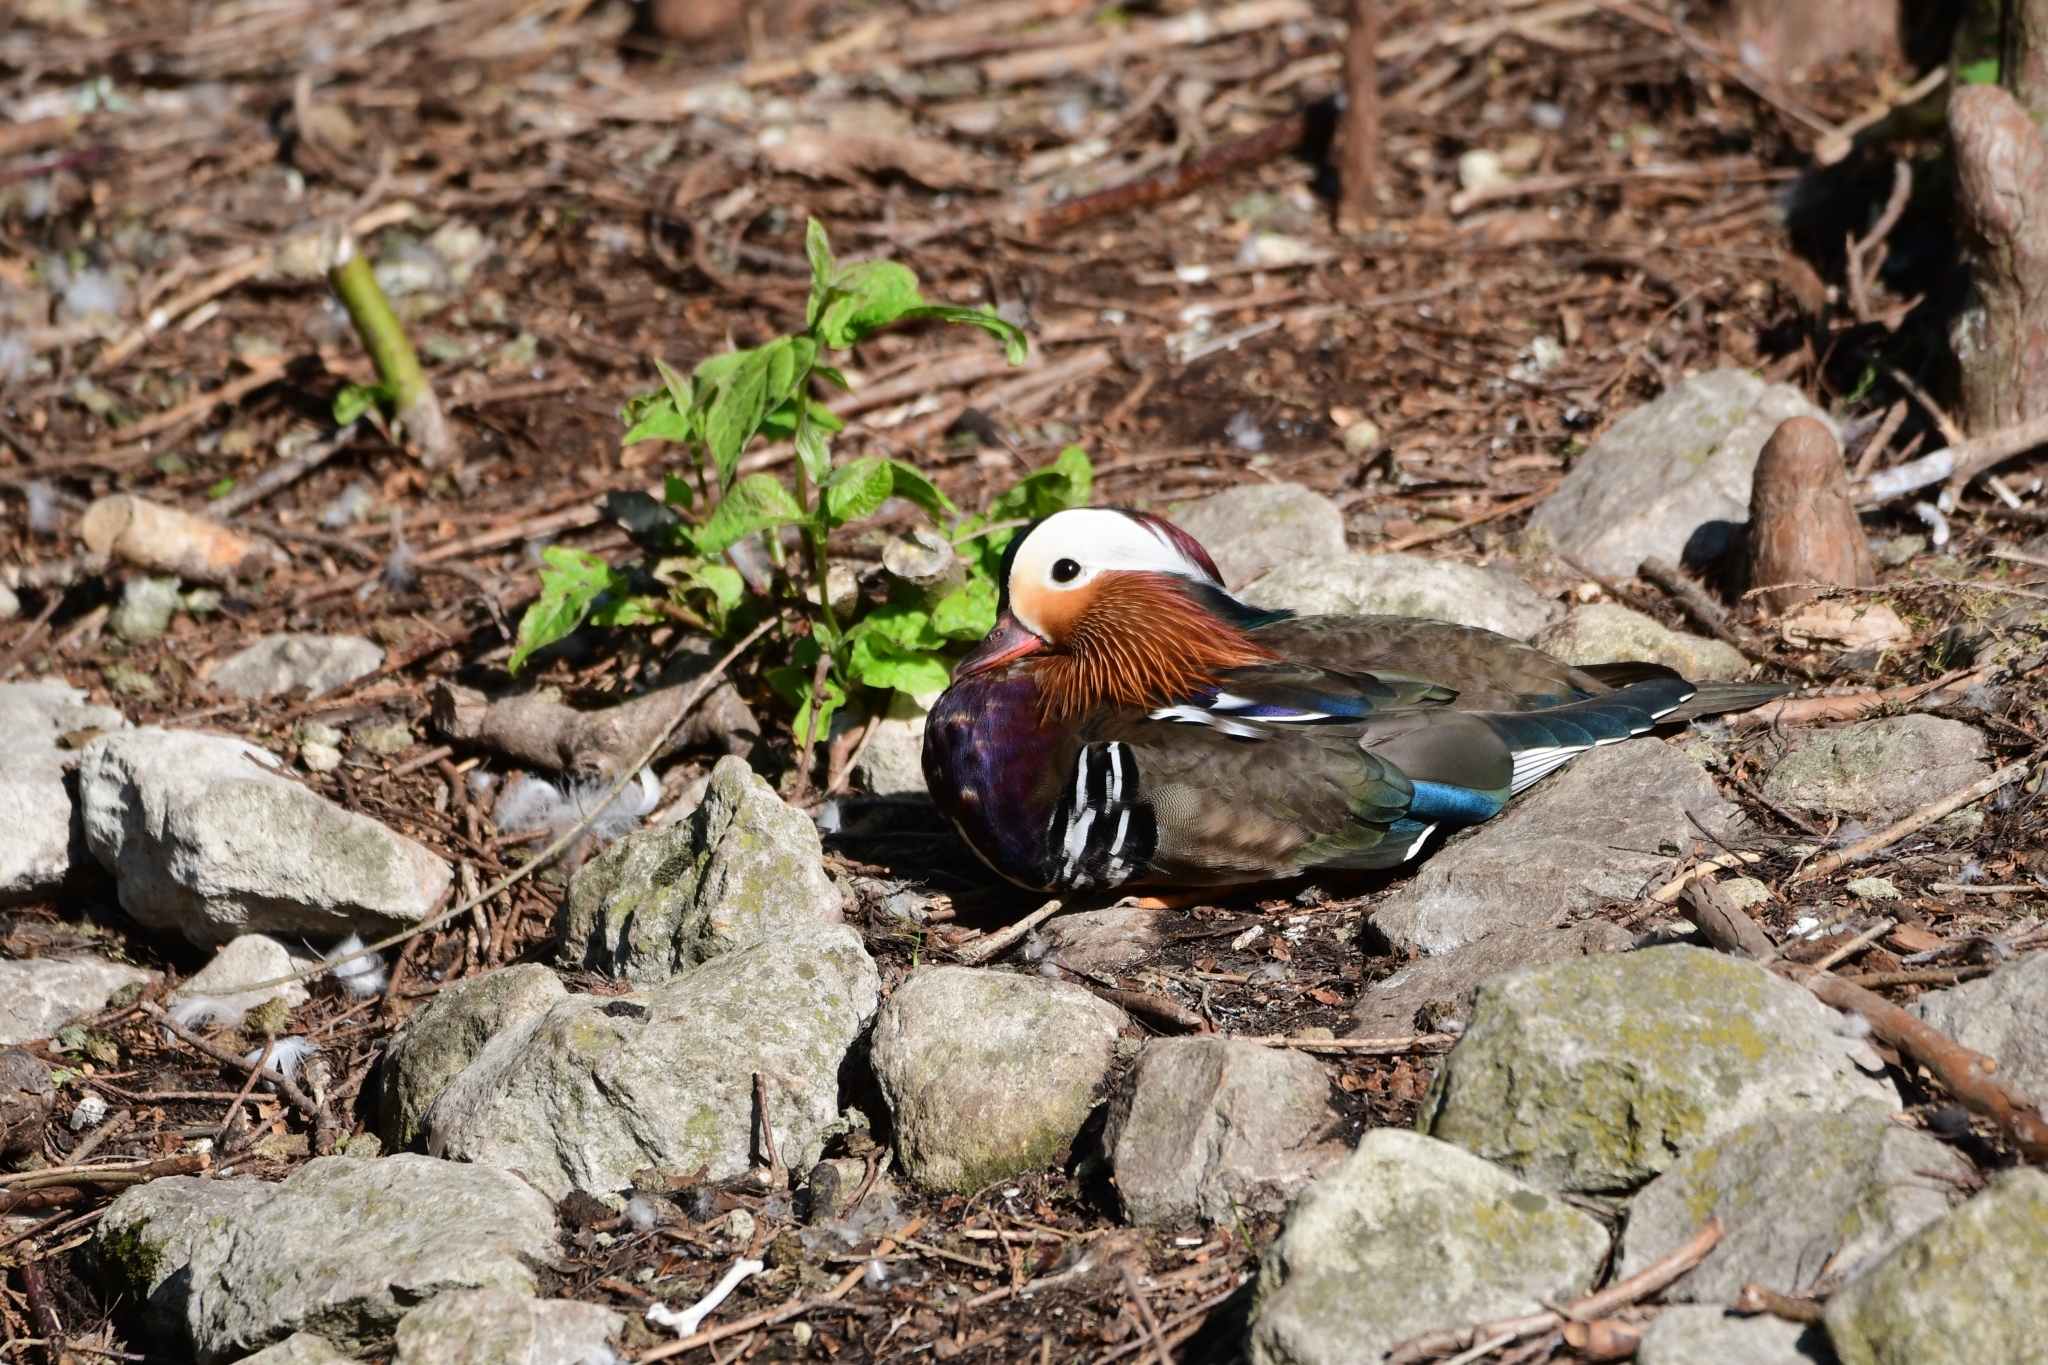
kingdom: Animalia
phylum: Chordata
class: Aves
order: Anseriformes
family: Anatidae
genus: Aix
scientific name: Aix galericulata
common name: Mandarin duck
